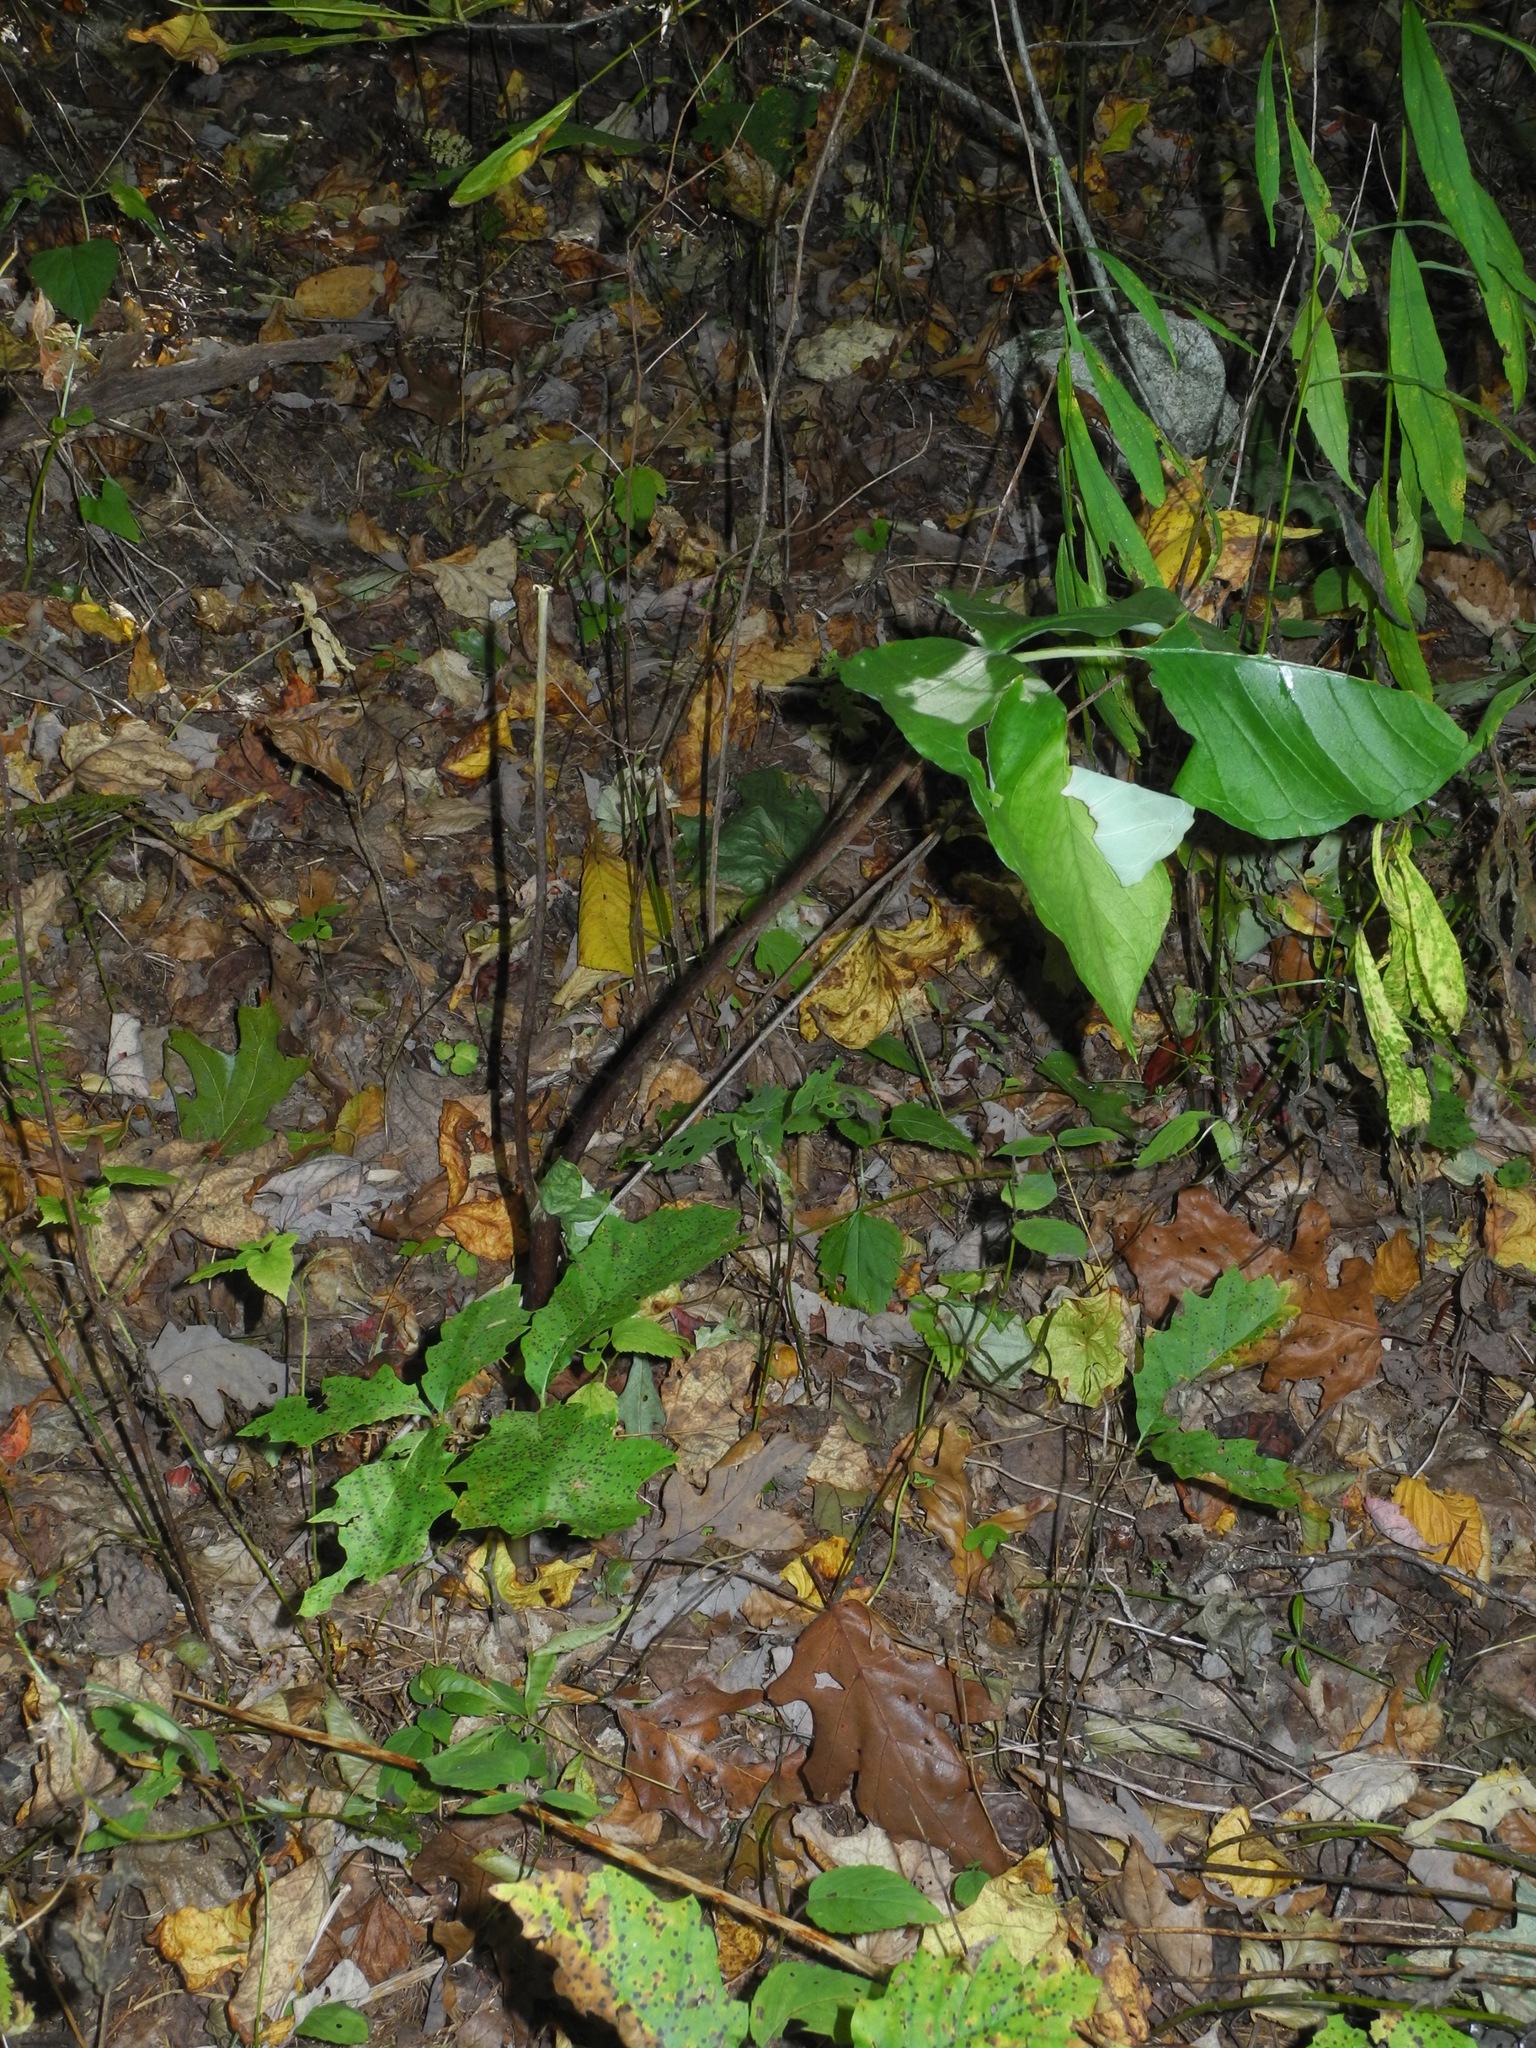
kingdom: Plantae
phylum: Tracheophyta
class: Liliopsida
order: Alismatales
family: Araceae
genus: Arisaema
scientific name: Arisaema triphyllum
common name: Jack-in-the-pulpit
